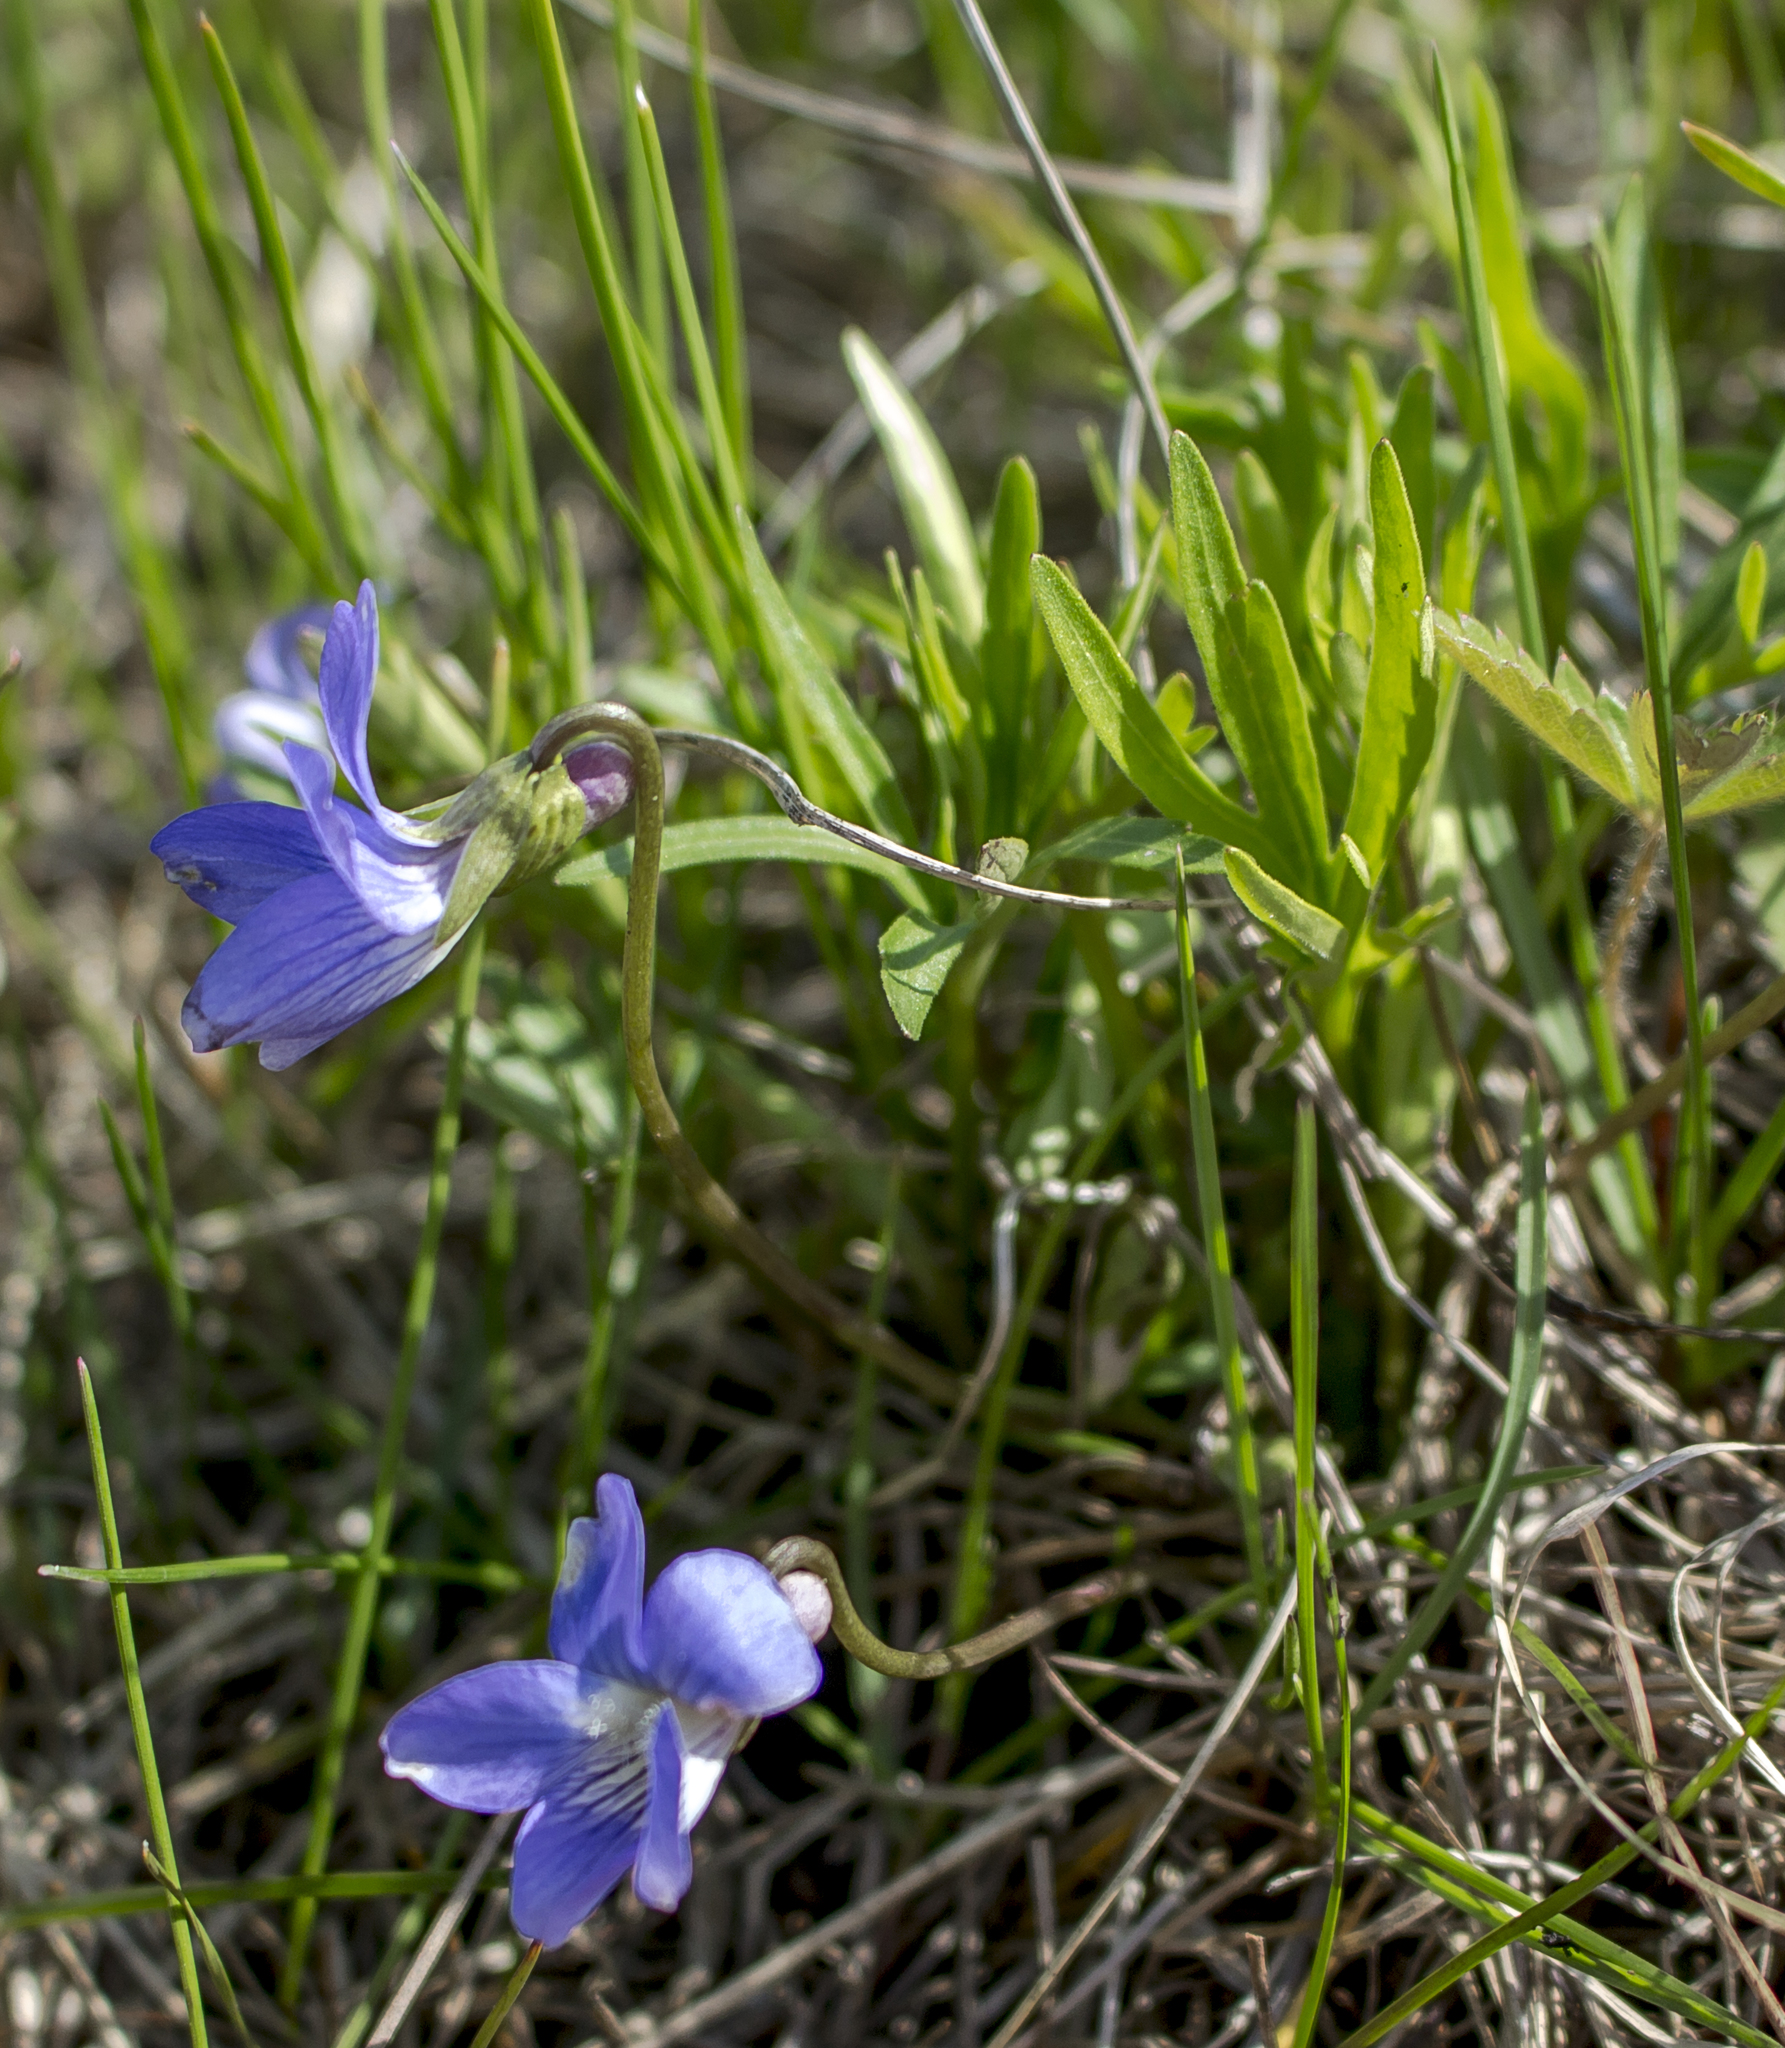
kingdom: Plantae
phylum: Tracheophyta
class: Magnoliopsida
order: Malpighiales
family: Violaceae
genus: Viola
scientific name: Viola pedatifida
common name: Prairie violet
